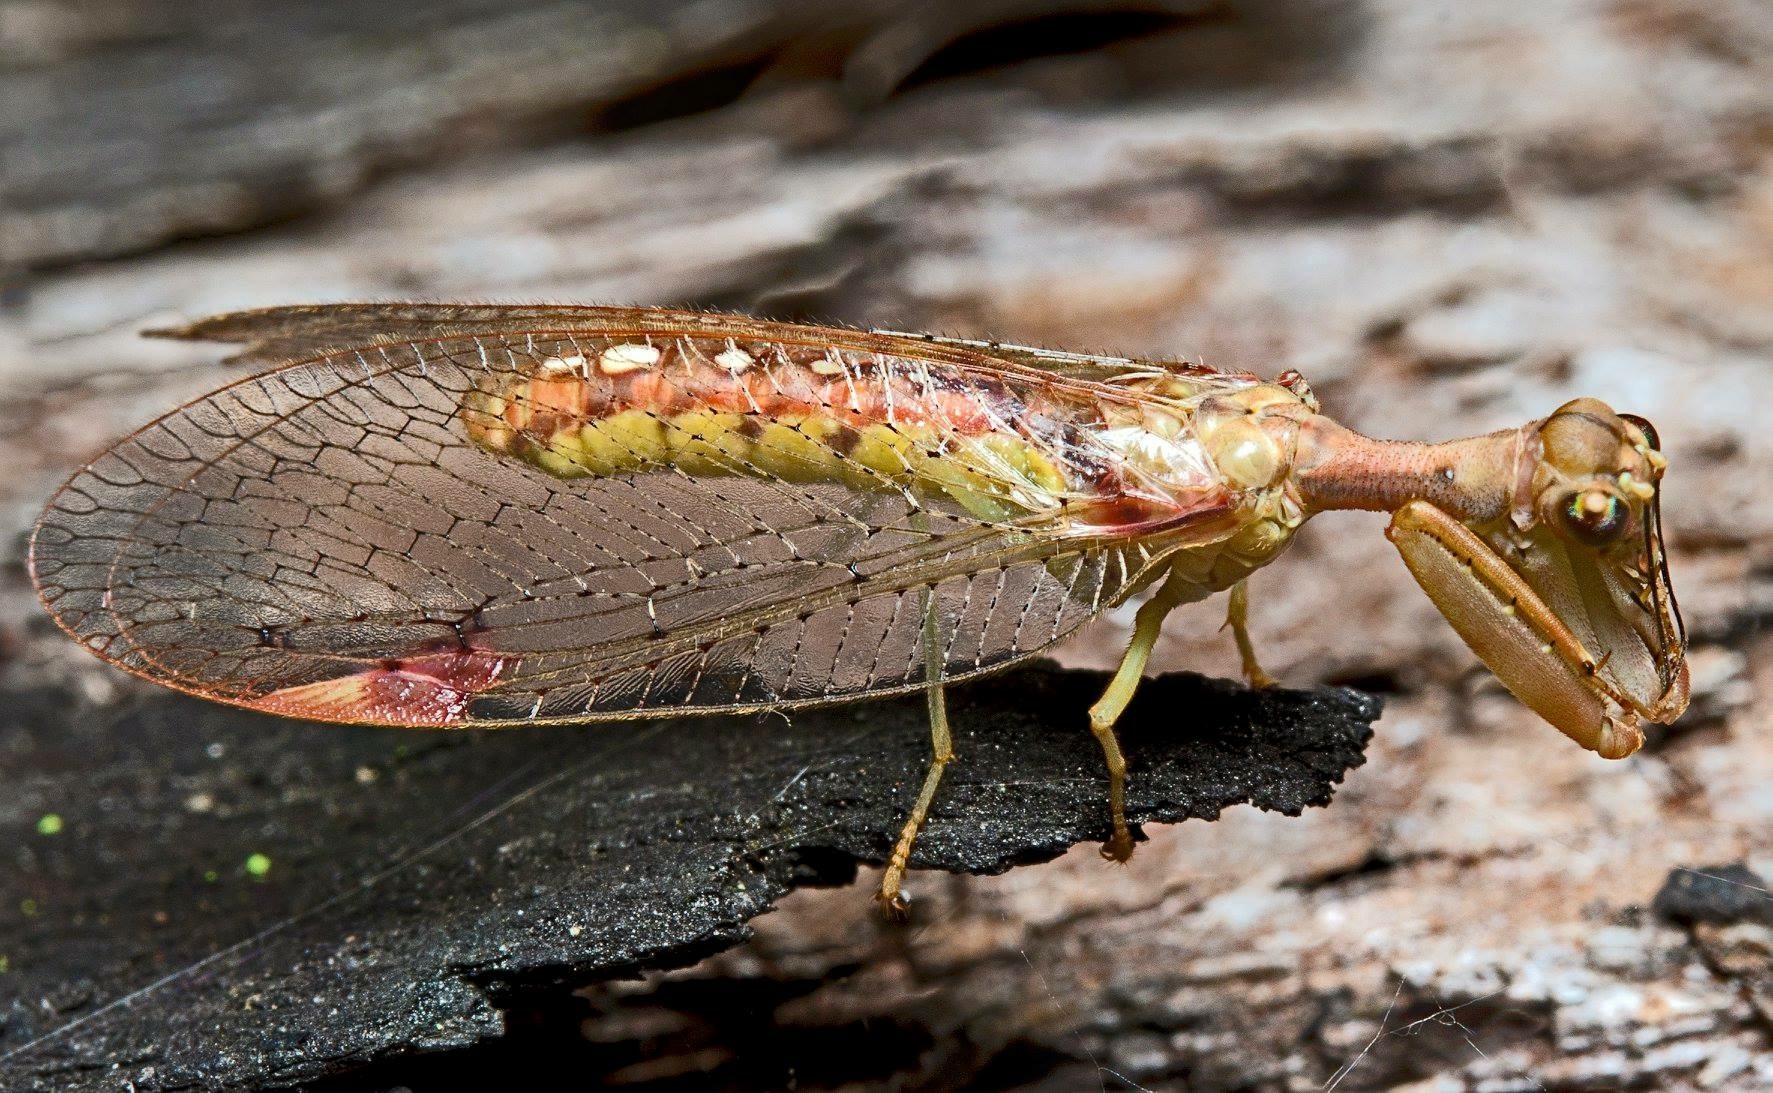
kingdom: Animalia
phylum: Arthropoda
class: Insecta
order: Neuroptera
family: Mantispidae
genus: Ditaxis
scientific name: Ditaxis biseriata
